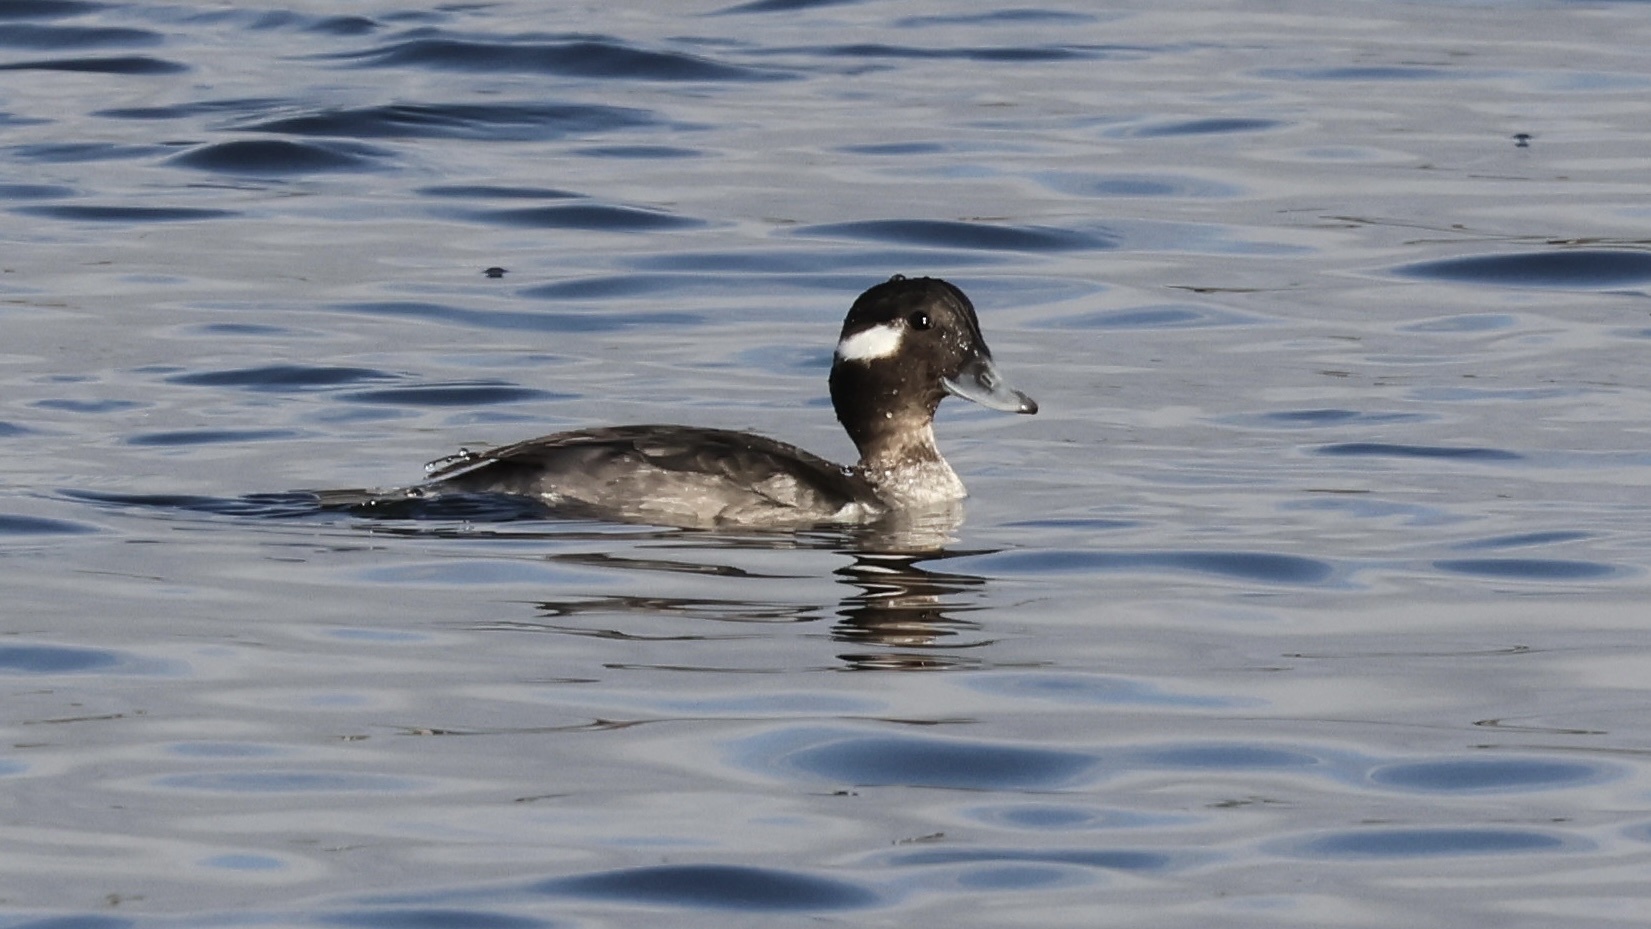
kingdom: Animalia
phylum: Chordata
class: Aves
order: Anseriformes
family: Anatidae
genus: Bucephala
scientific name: Bucephala albeola
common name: Bufflehead
